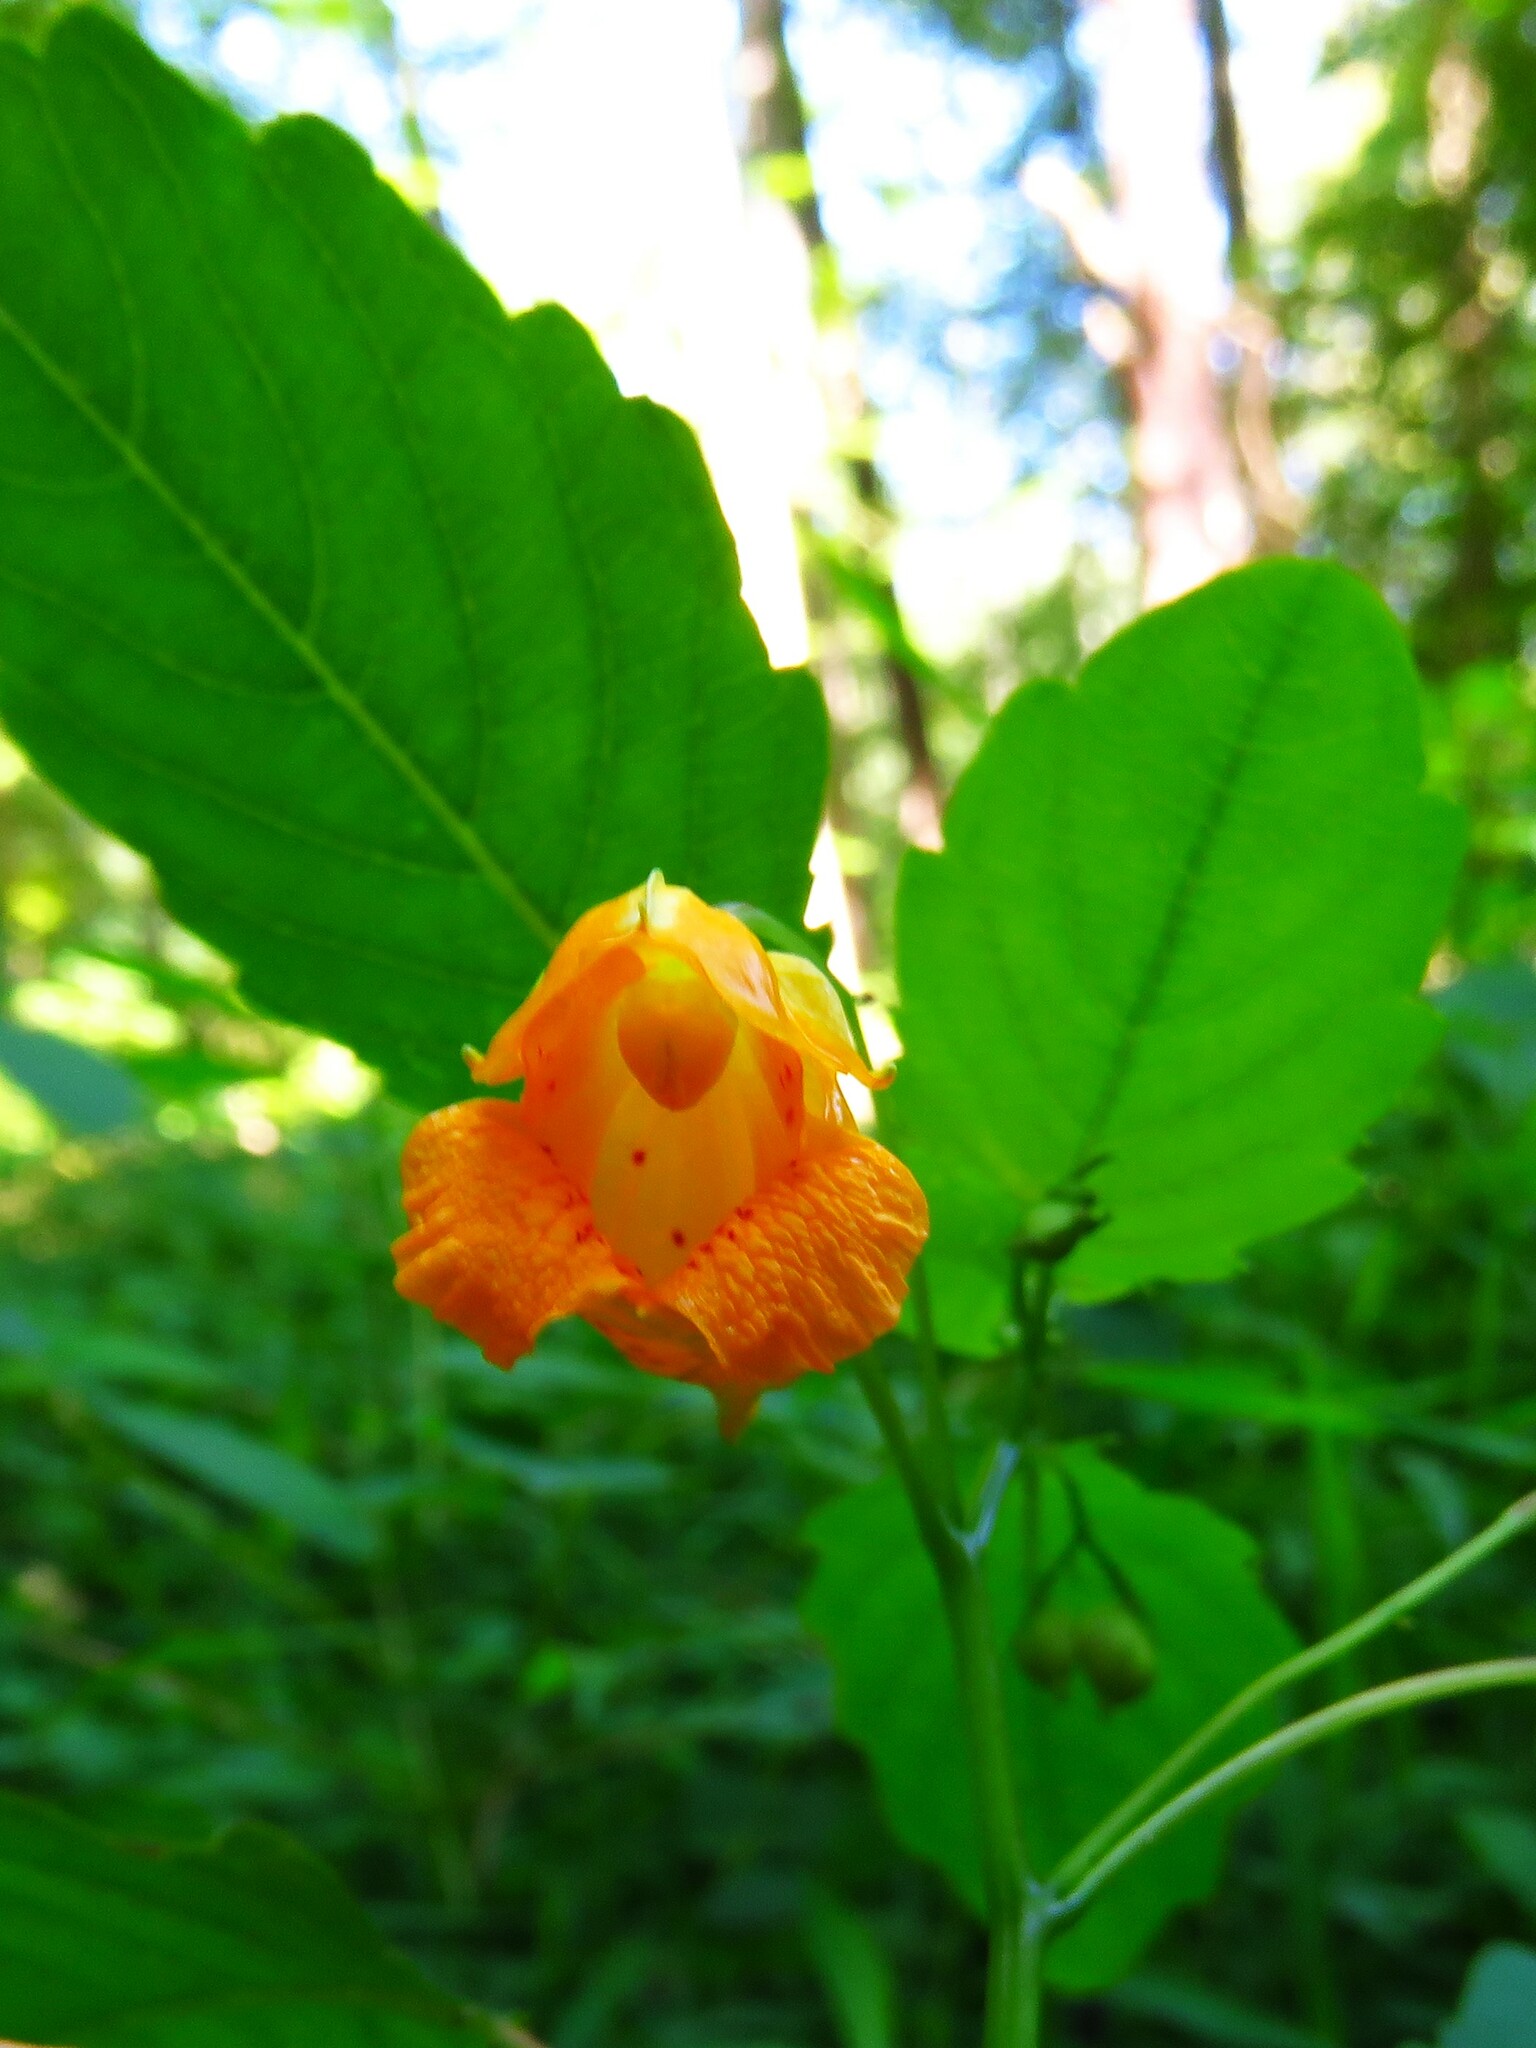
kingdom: Plantae
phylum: Tracheophyta
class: Magnoliopsida
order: Ericales
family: Balsaminaceae
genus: Impatiens
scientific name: Impatiens capensis
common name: Orange balsam
